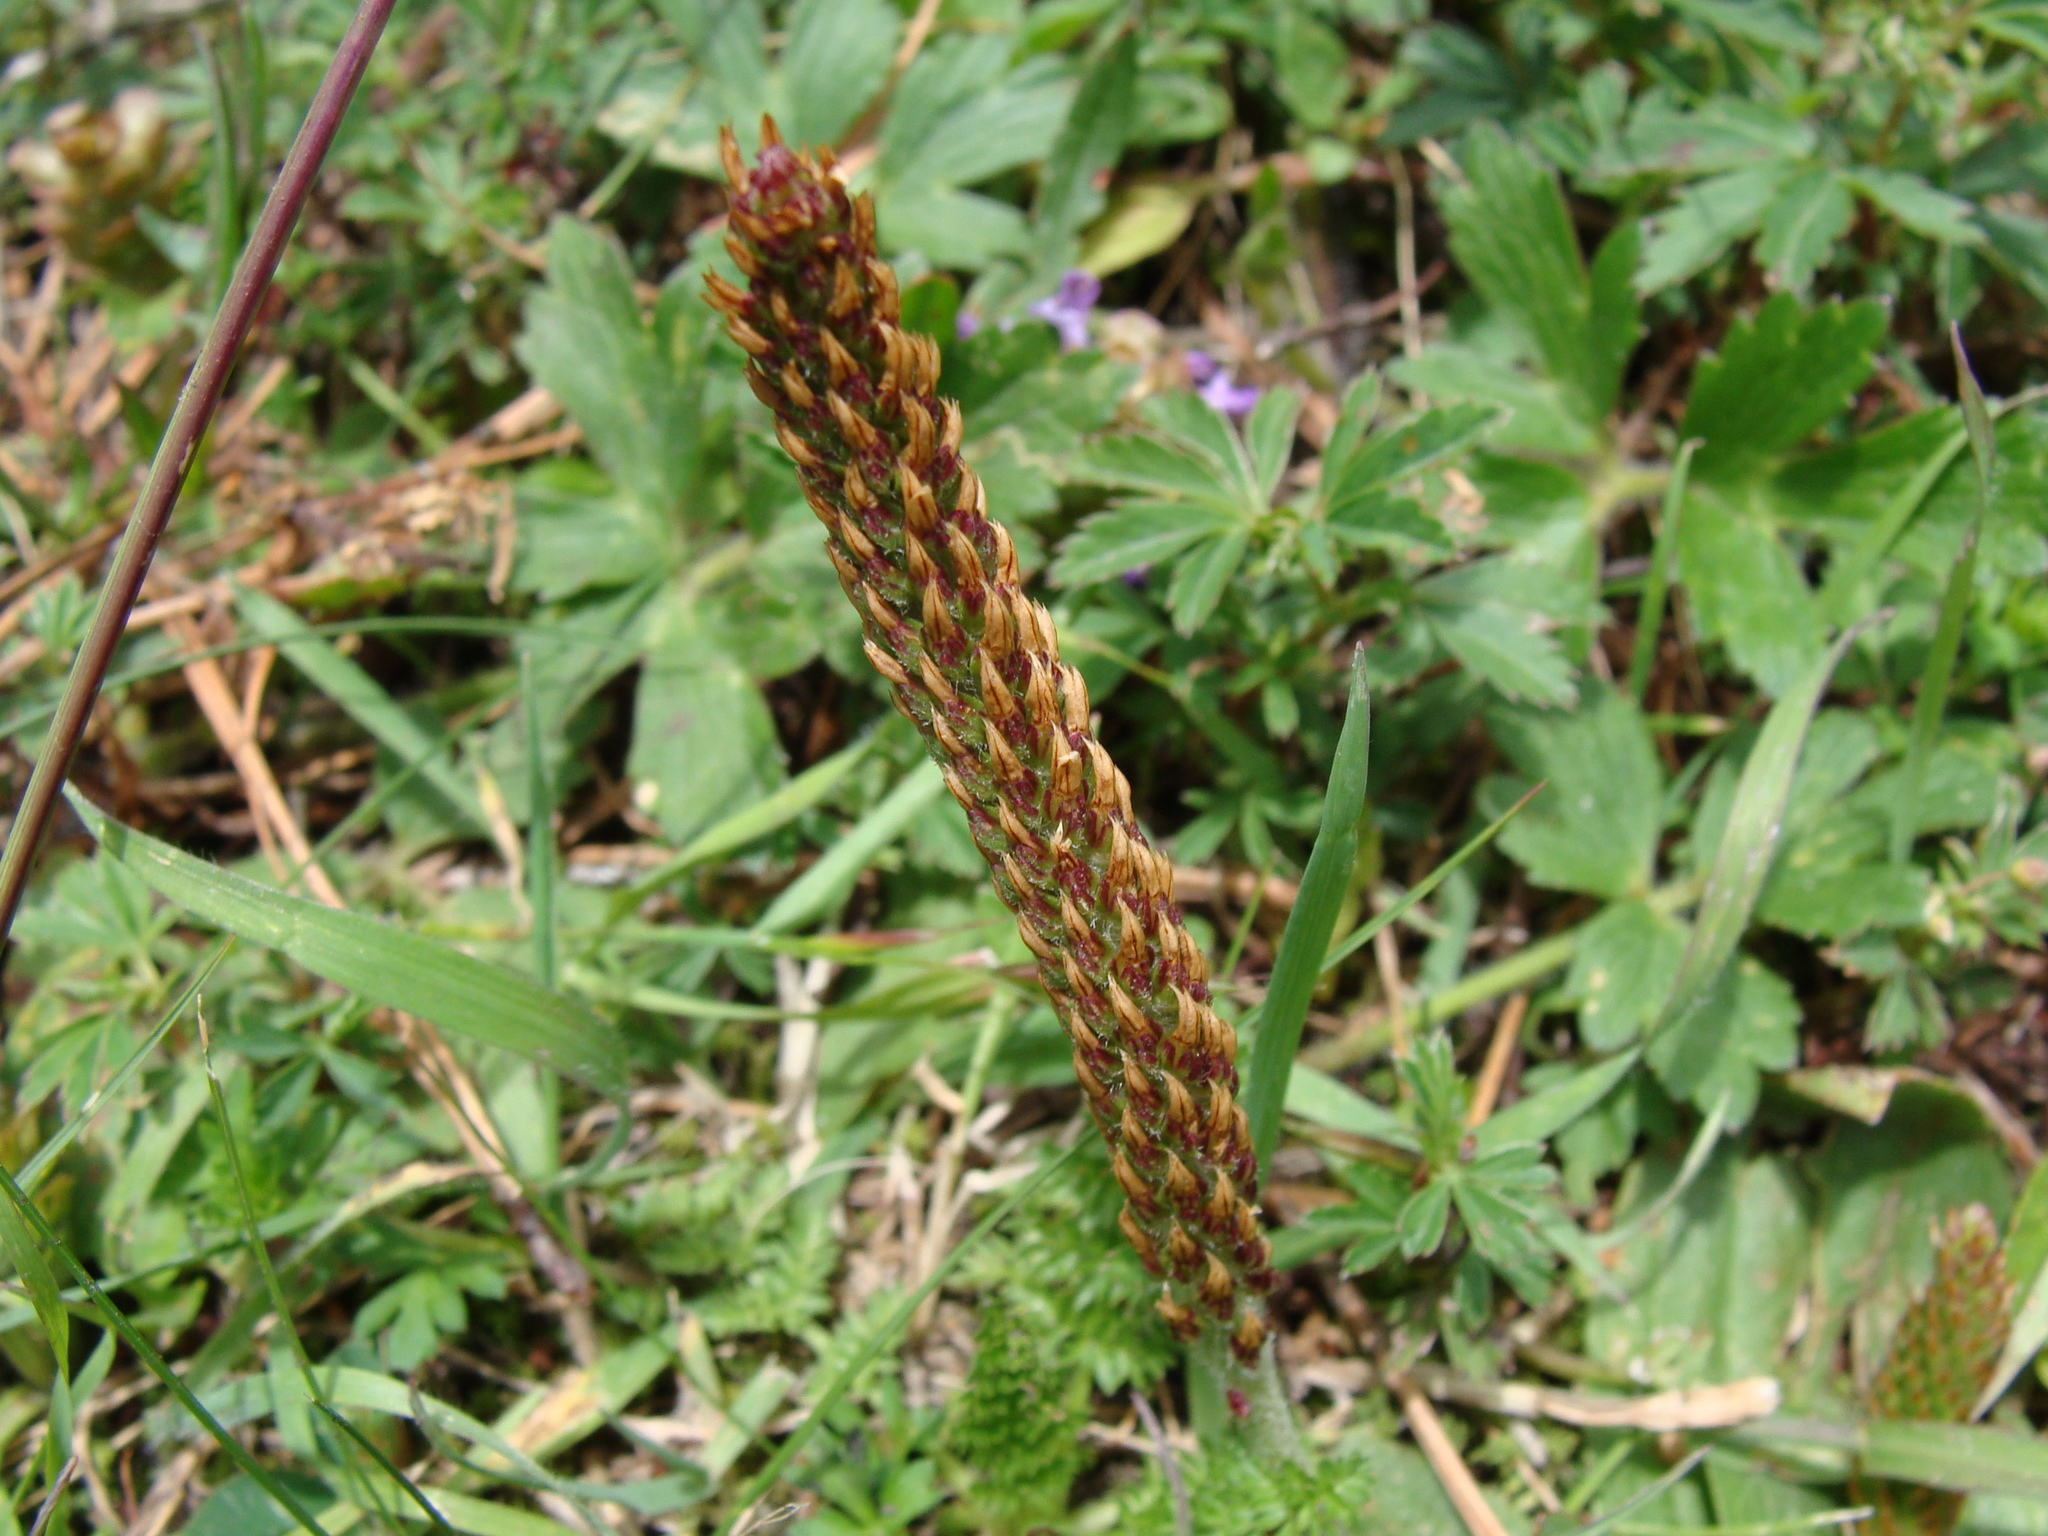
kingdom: Plantae
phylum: Tracheophyta
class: Magnoliopsida
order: Lamiales
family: Plantaginaceae
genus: Plantago
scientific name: Plantago australis
